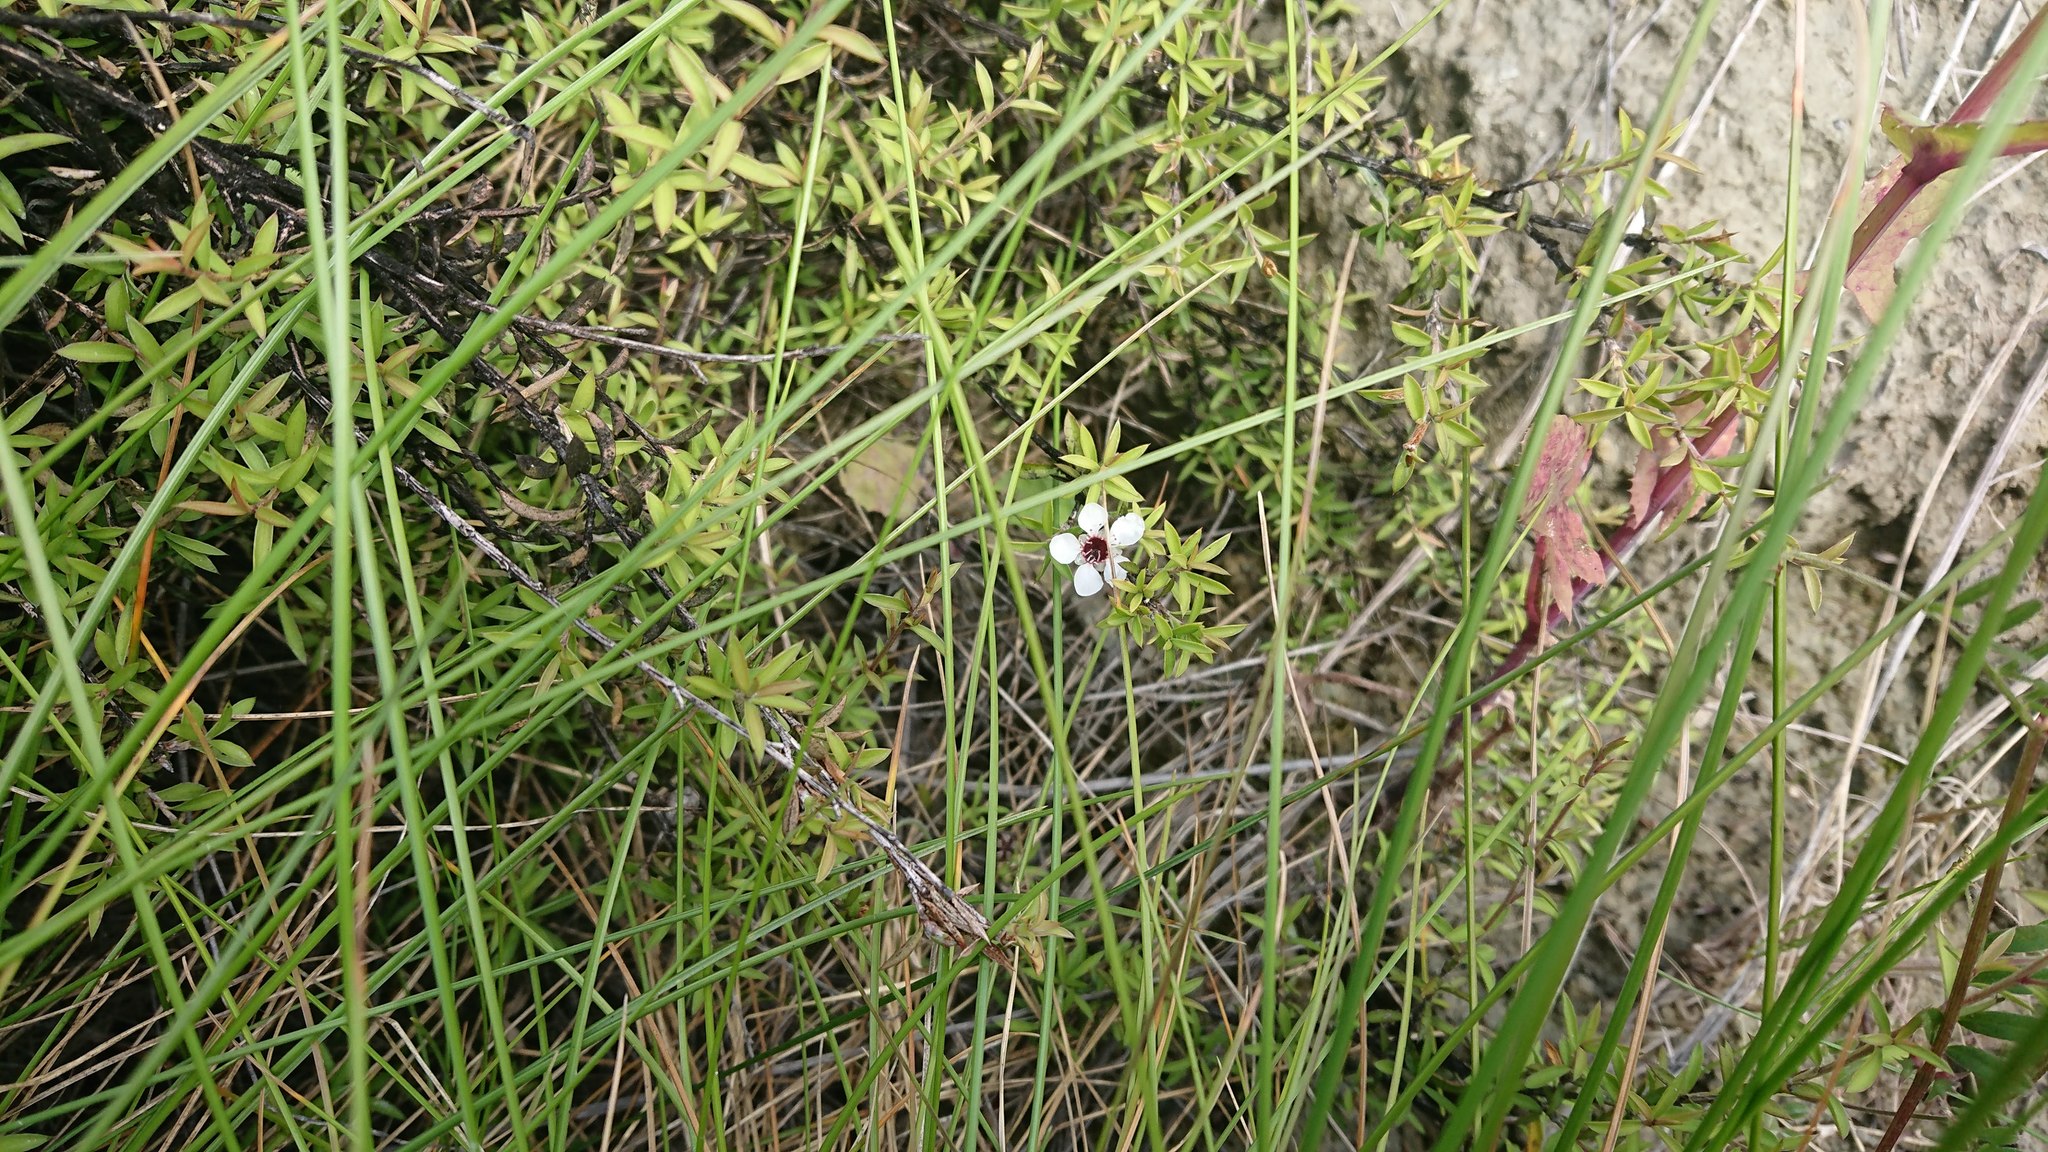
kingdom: Plantae
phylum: Tracheophyta
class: Magnoliopsida
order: Myrtales
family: Myrtaceae
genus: Leptospermum
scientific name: Leptospermum scoparium
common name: Broom tea-tree
